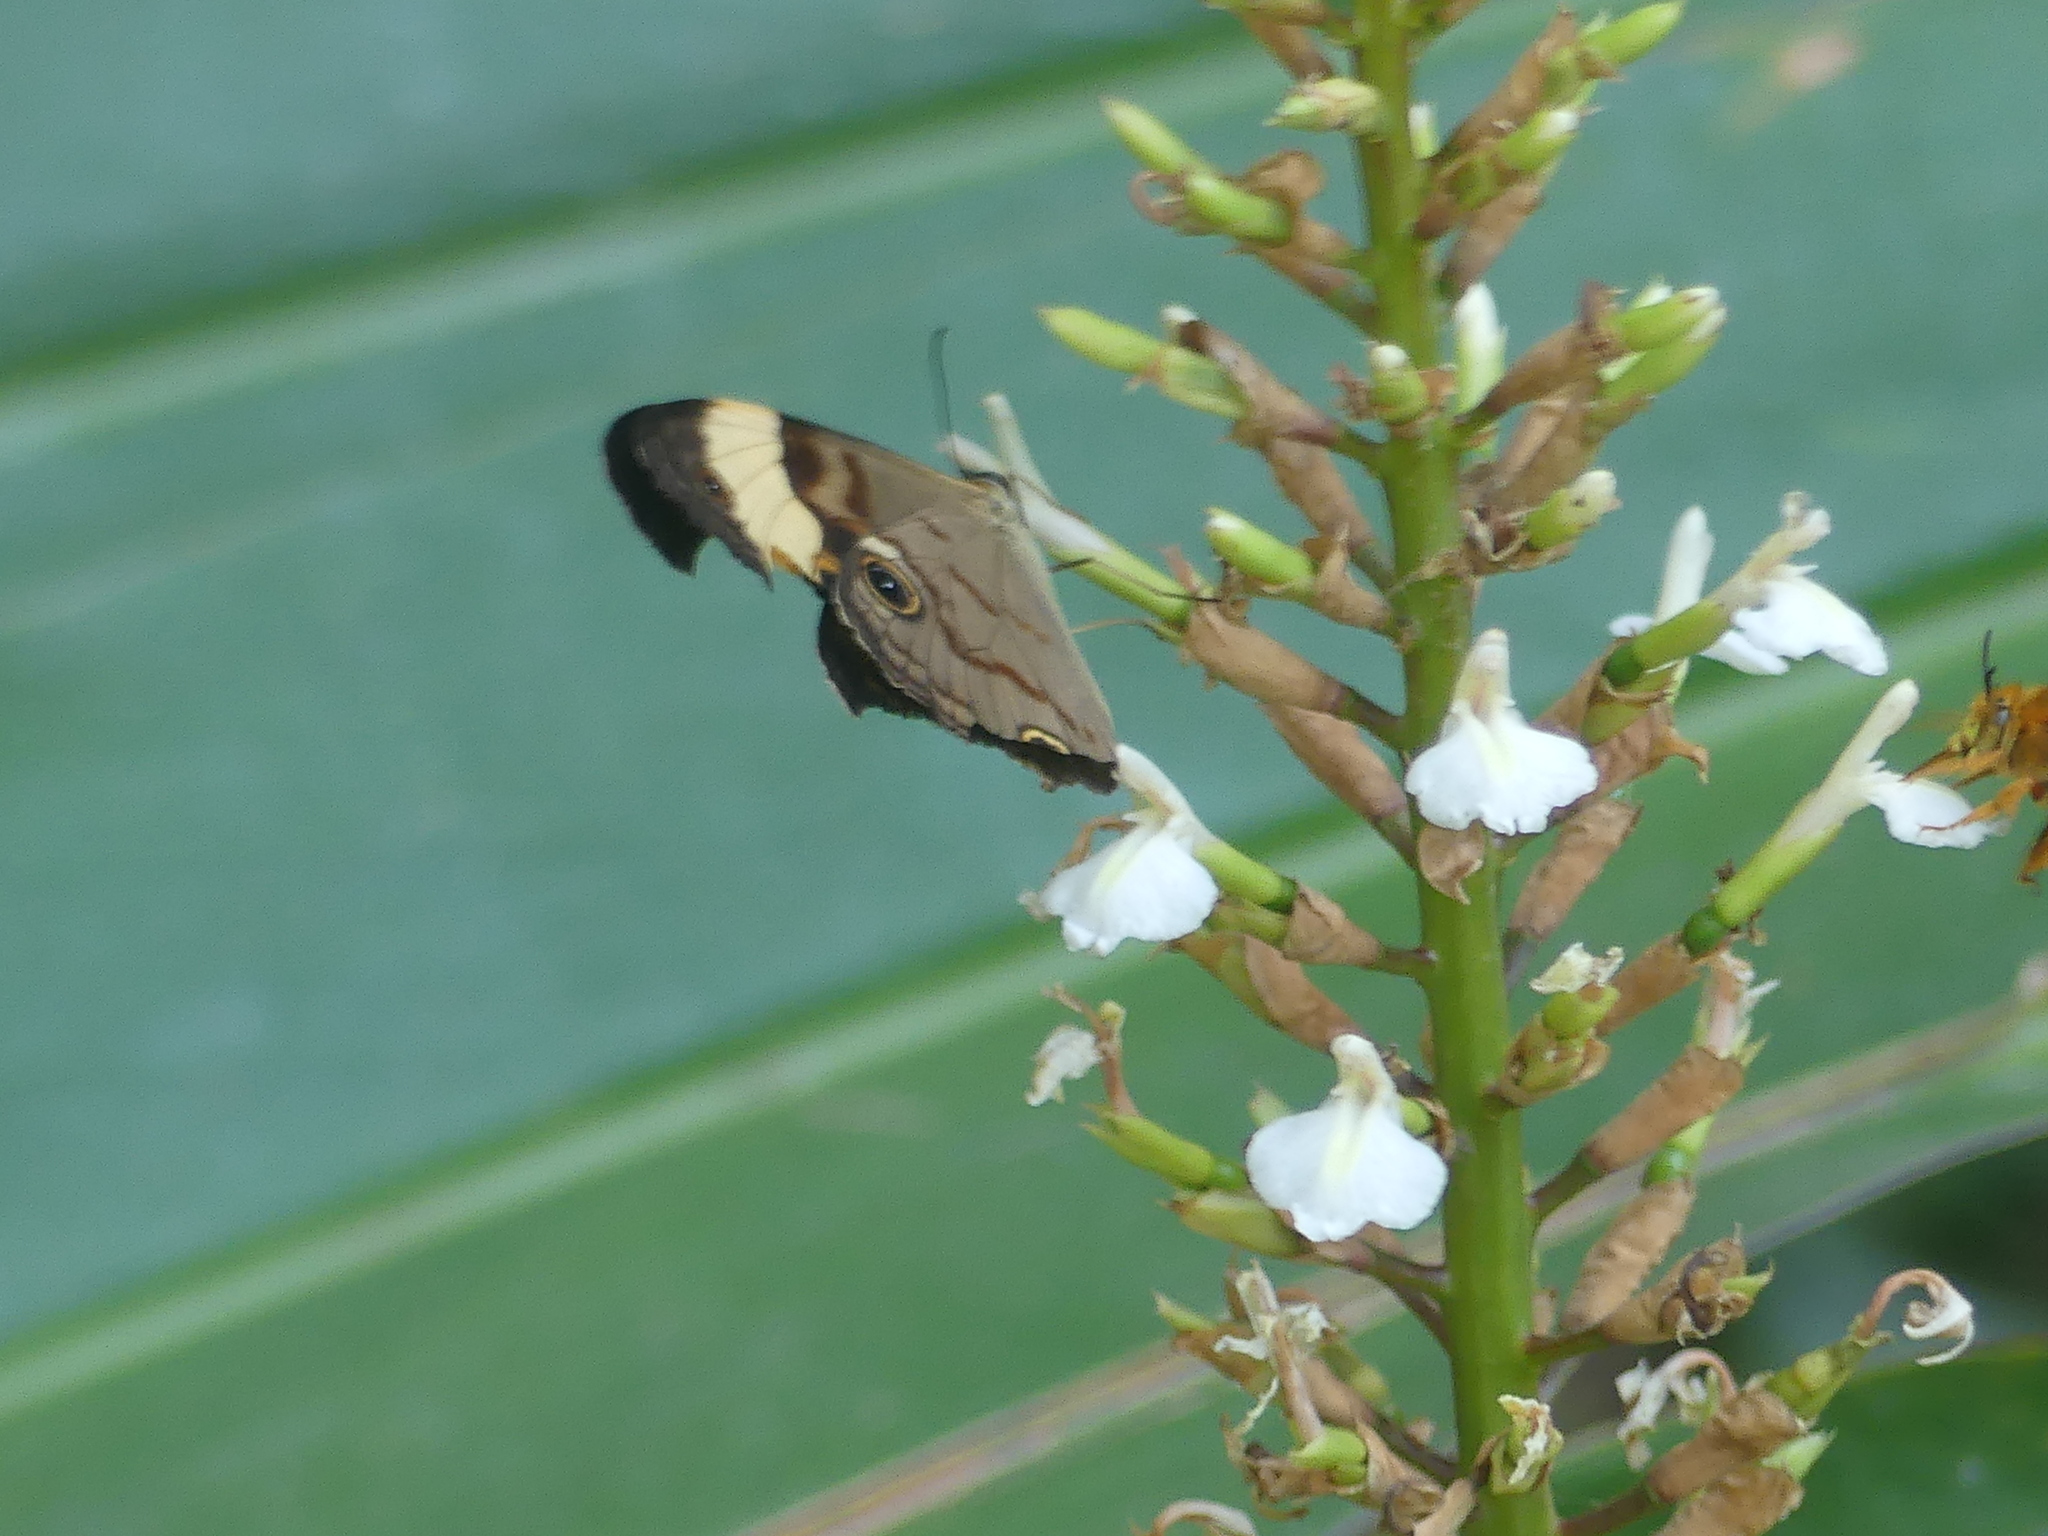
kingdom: Animalia
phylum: Arthropoda
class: Insecta
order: Lepidoptera
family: Nymphalidae
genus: Tisiphone
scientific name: Tisiphone helena
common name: Northern sword-grass brown
